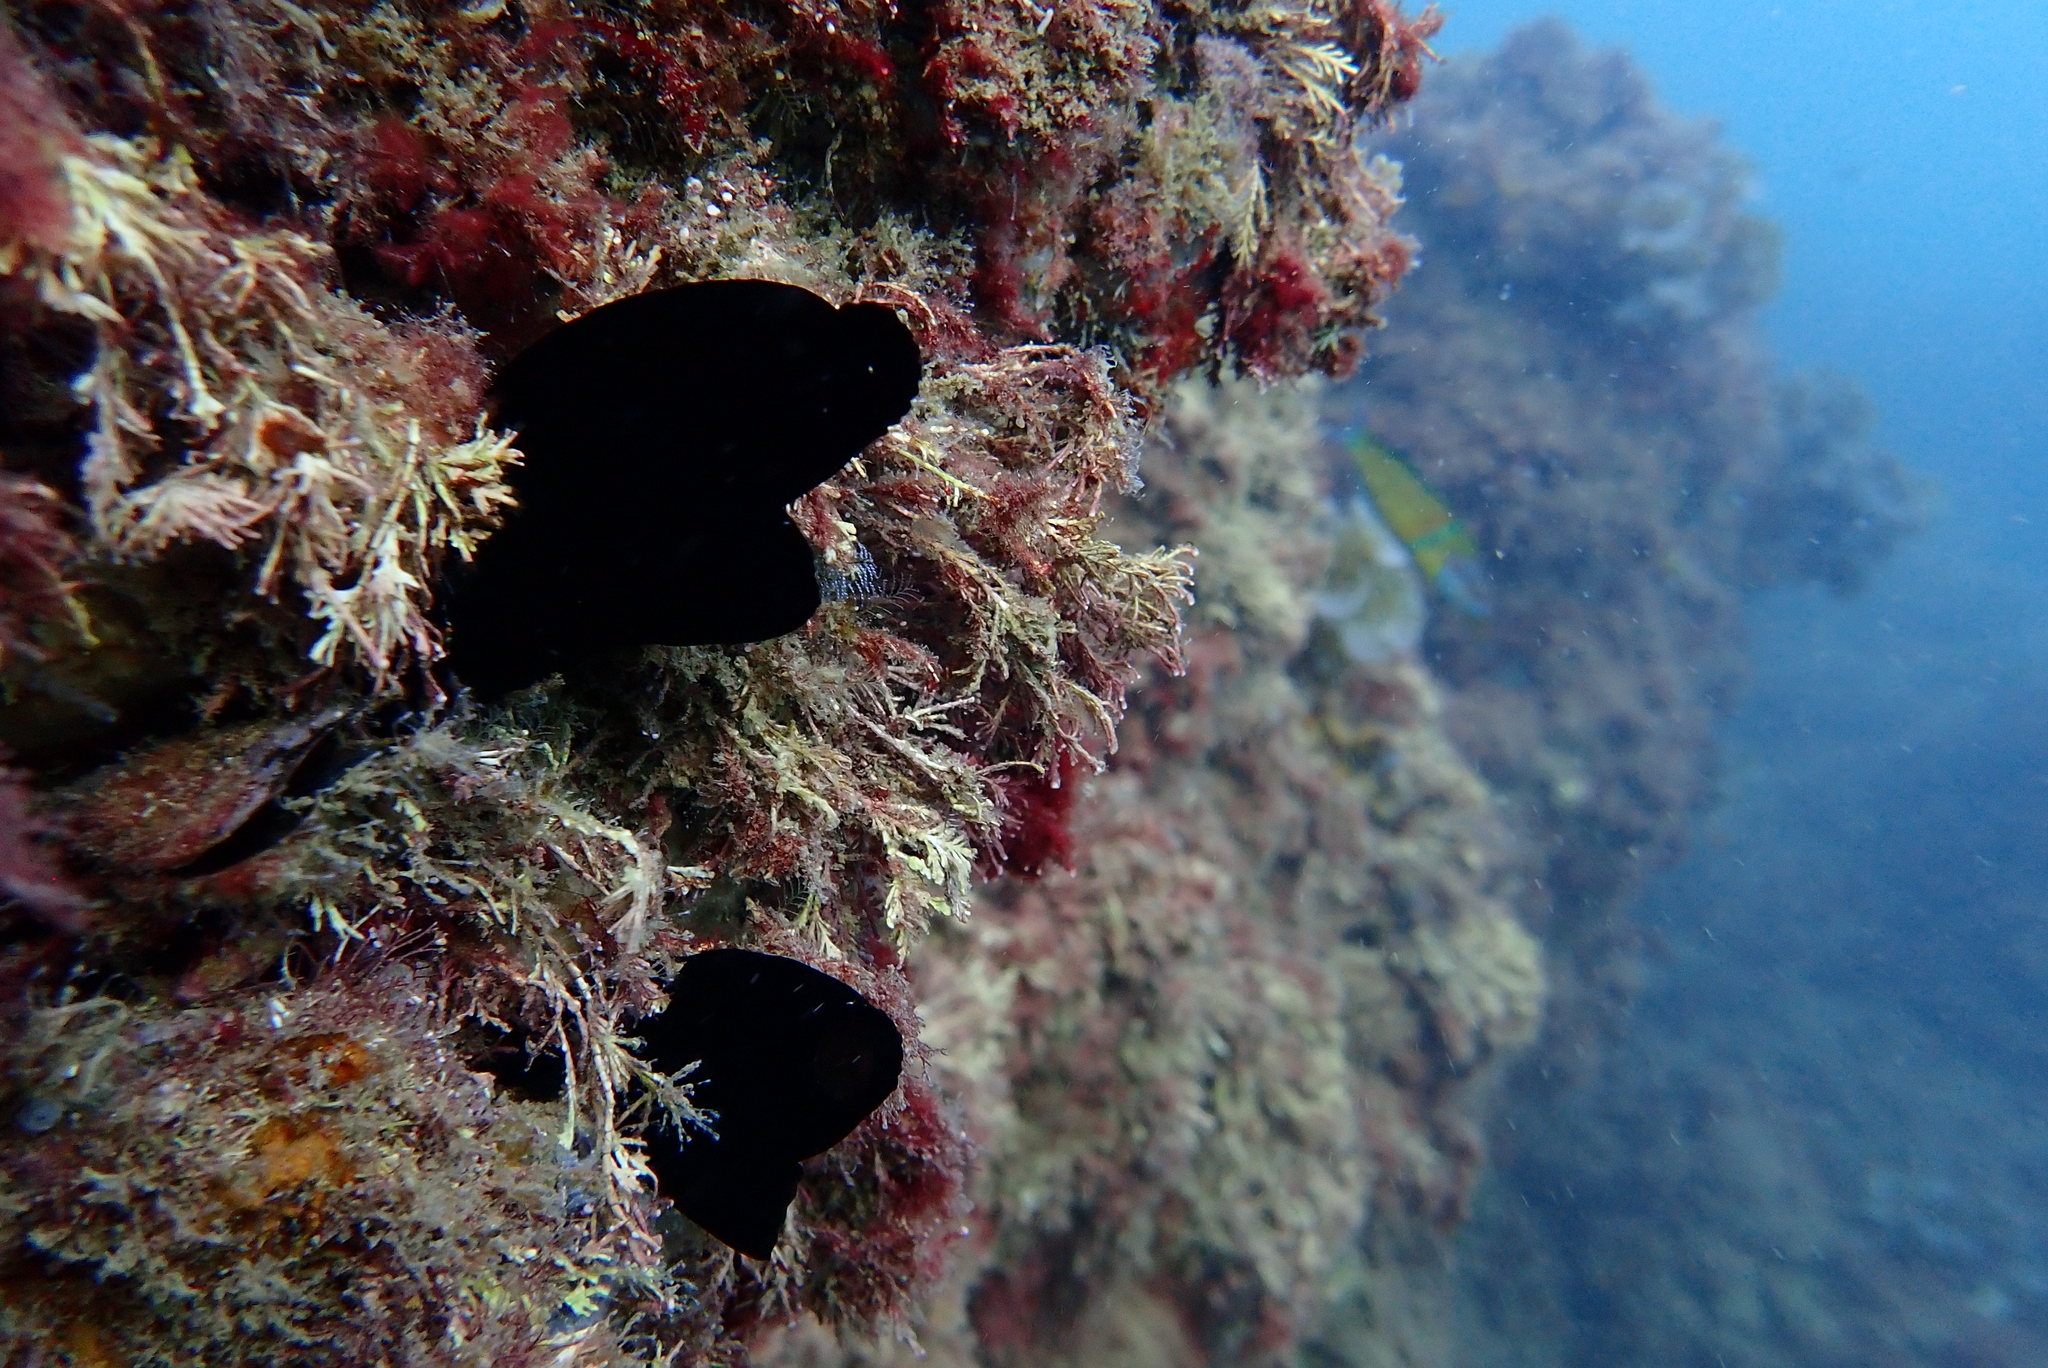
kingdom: Animalia
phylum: Chordata
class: Ascidiacea
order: Phlebobranchia
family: Ascidiidae
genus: Phallusia
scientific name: Phallusia nigra
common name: Black tunicate
